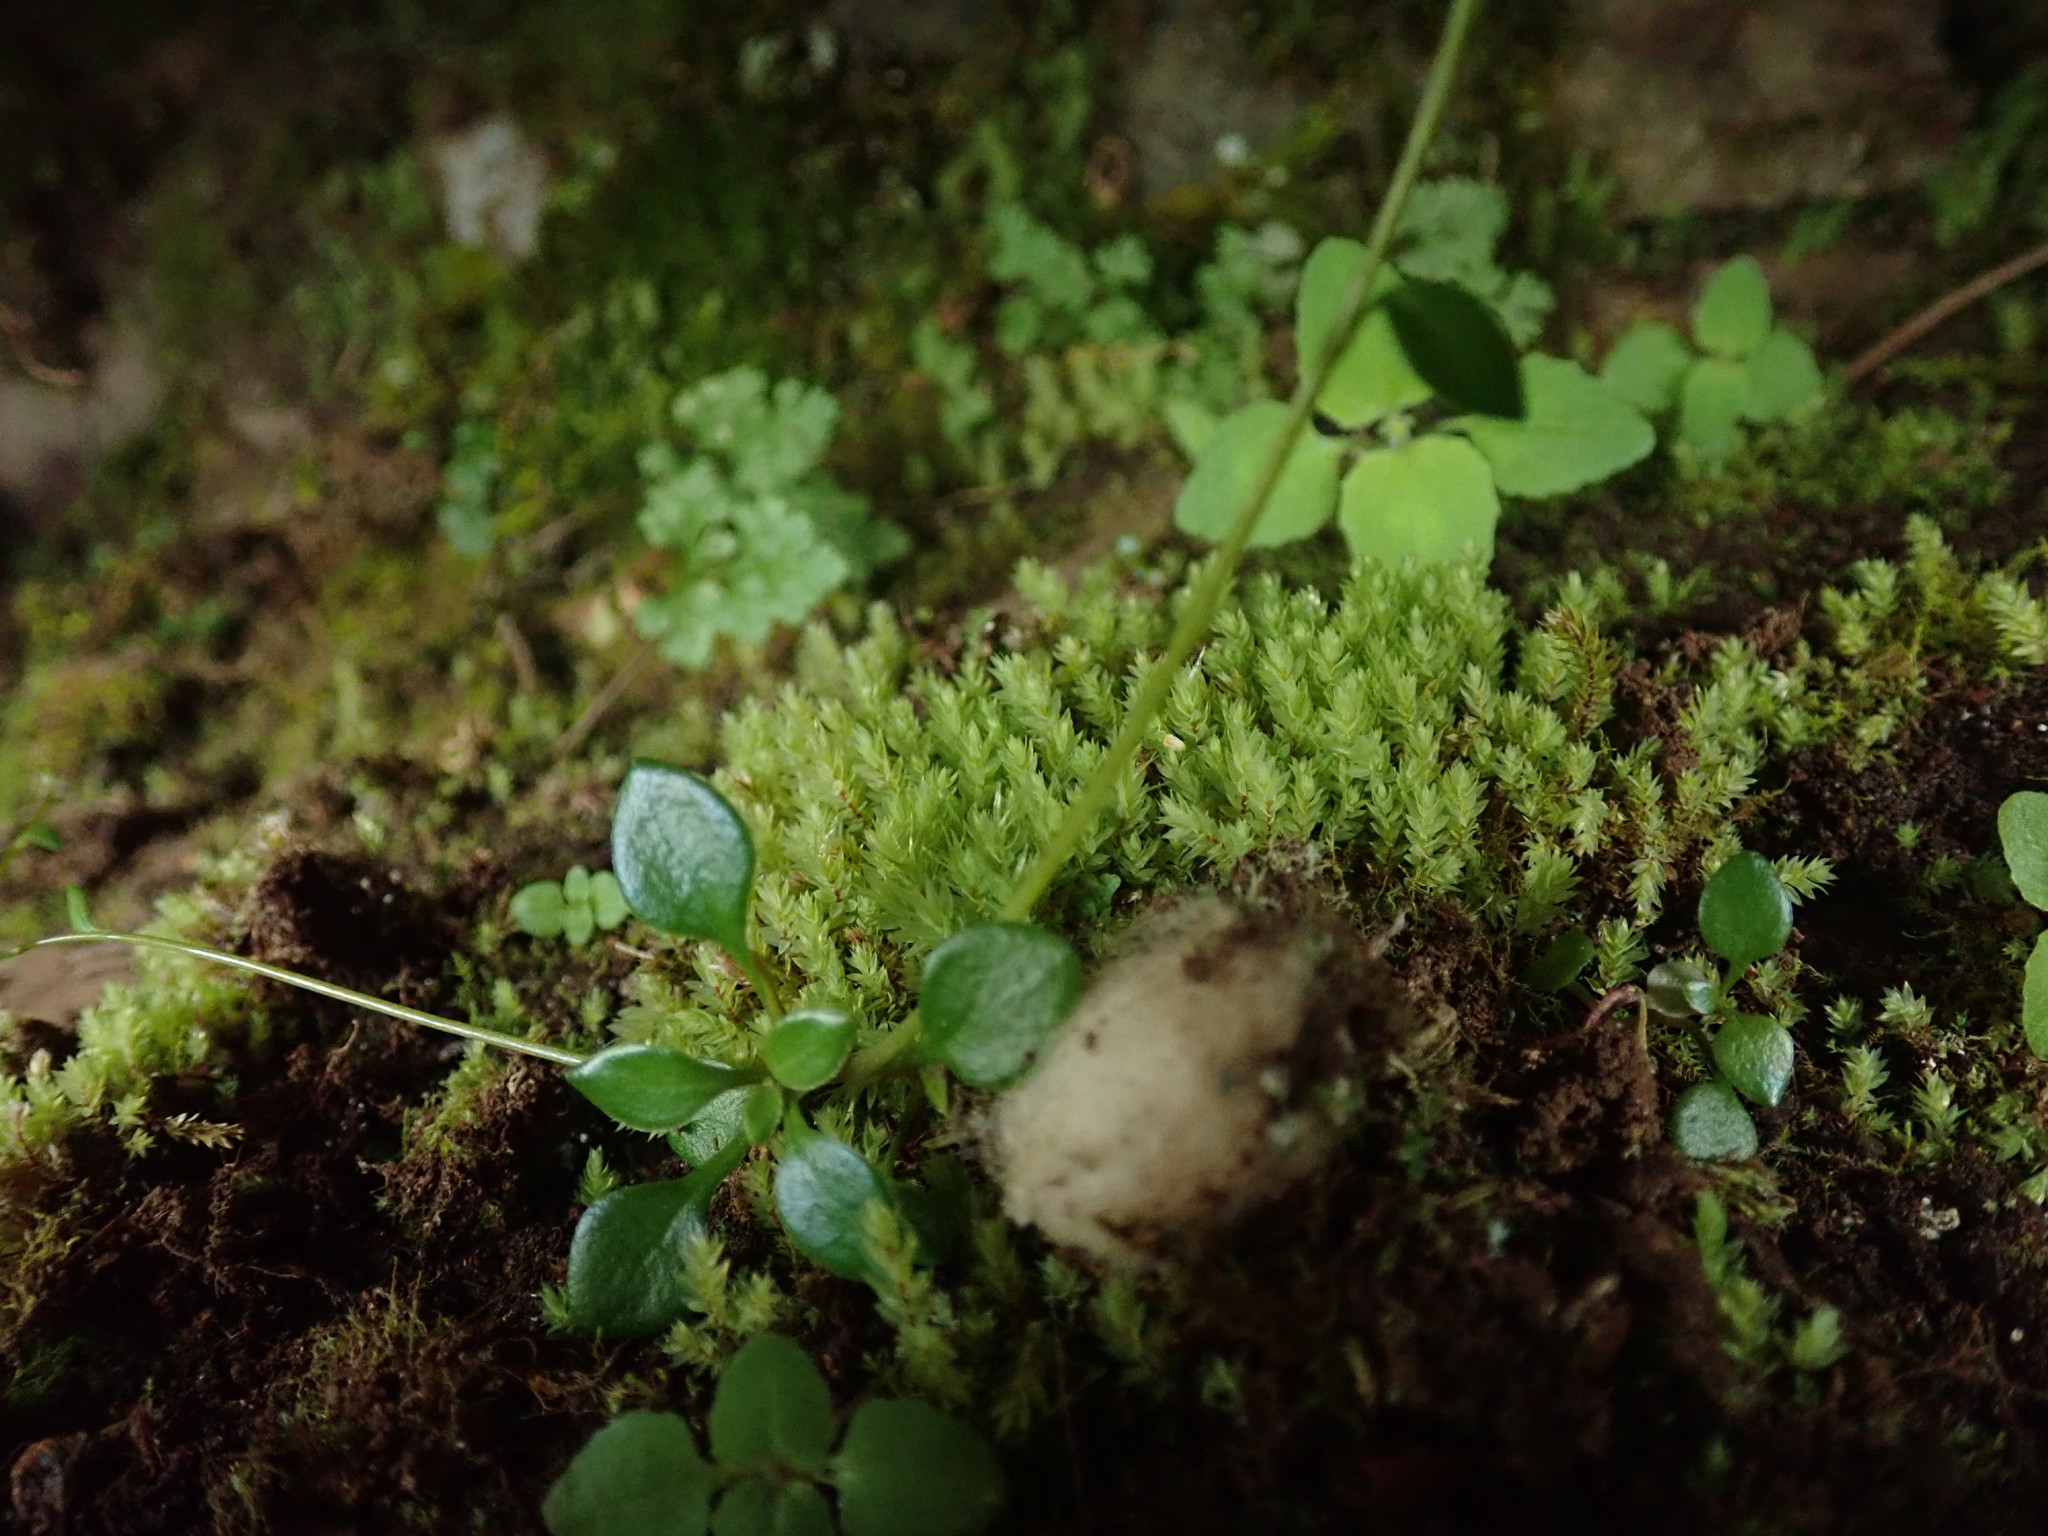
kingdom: Plantae
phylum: Bryophyta
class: Bryopsida
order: Bryales
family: Mniaceae
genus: Pohlia
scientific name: Pohlia cruda
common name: Opal nodding moss
